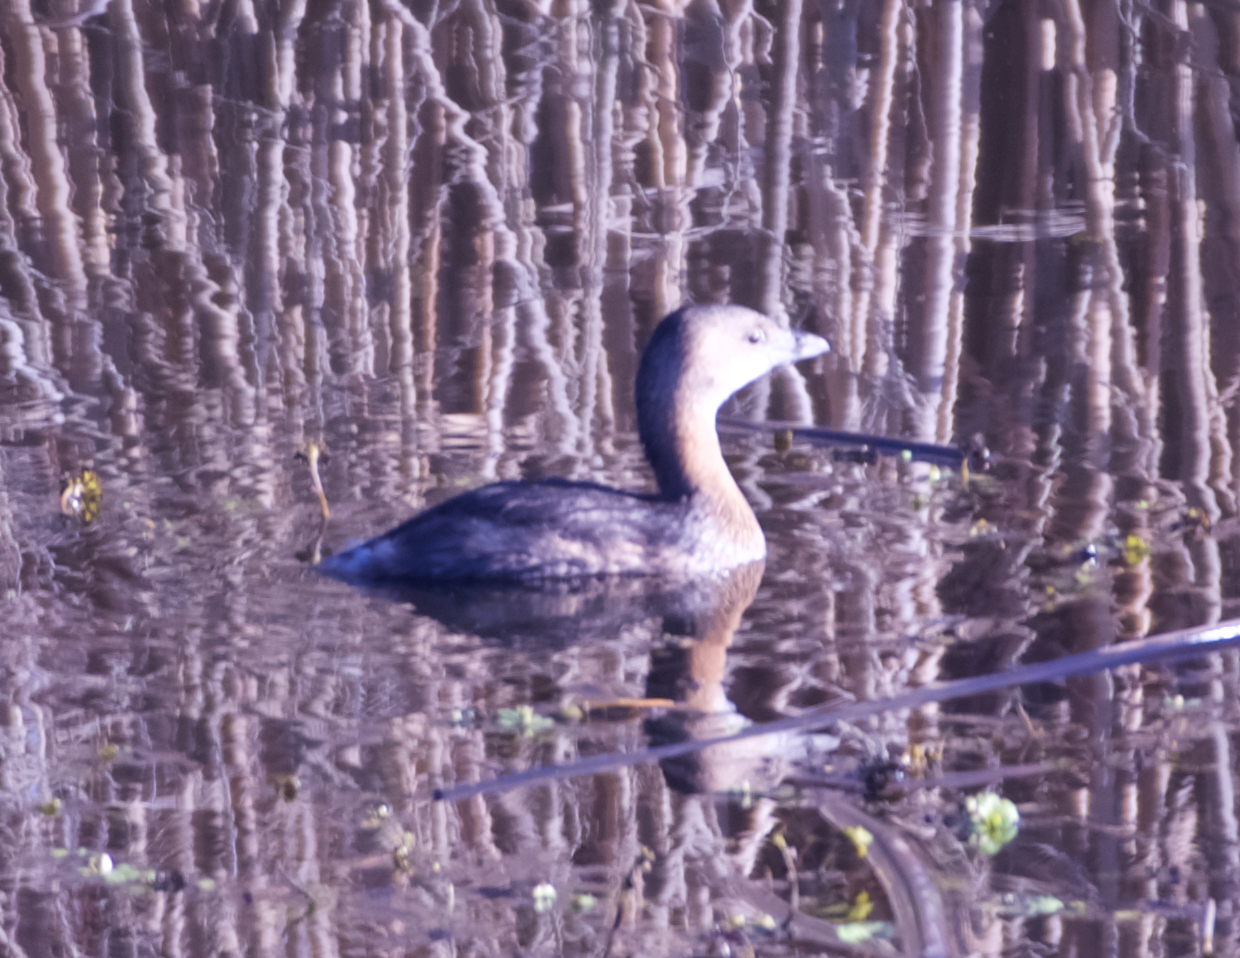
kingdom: Animalia
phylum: Chordata
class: Aves
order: Podicipediformes
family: Podicipedidae
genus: Podilymbus
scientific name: Podilymbus podiceps
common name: Pied-billed grebe
